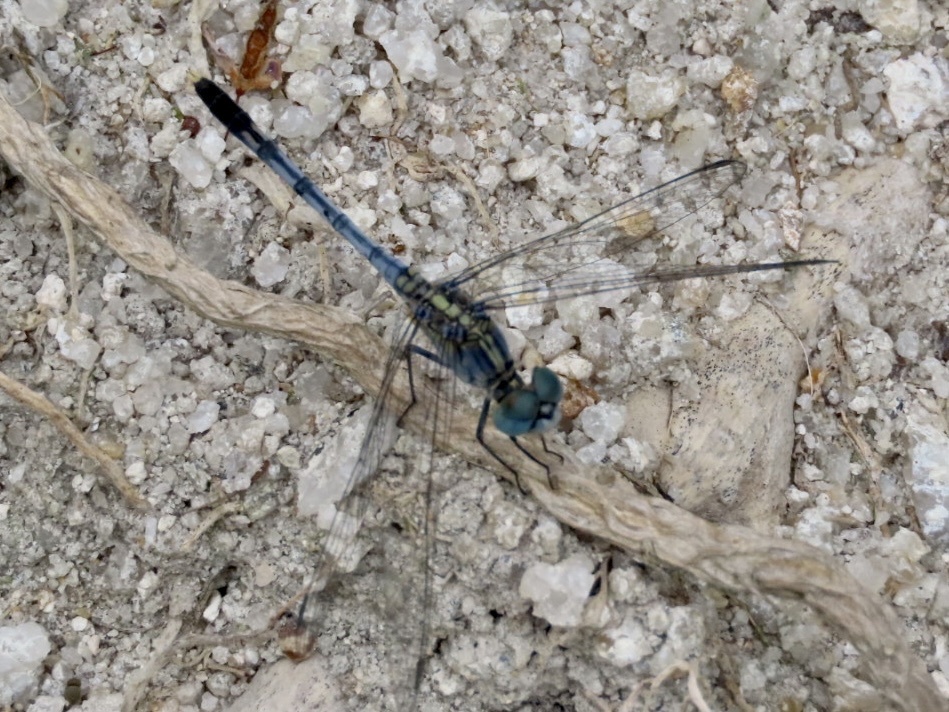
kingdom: Animalia
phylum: Arthropoda
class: Insecta
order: Odonata
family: Libellulidae
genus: Diplacodes
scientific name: Diplacodes trivialis
